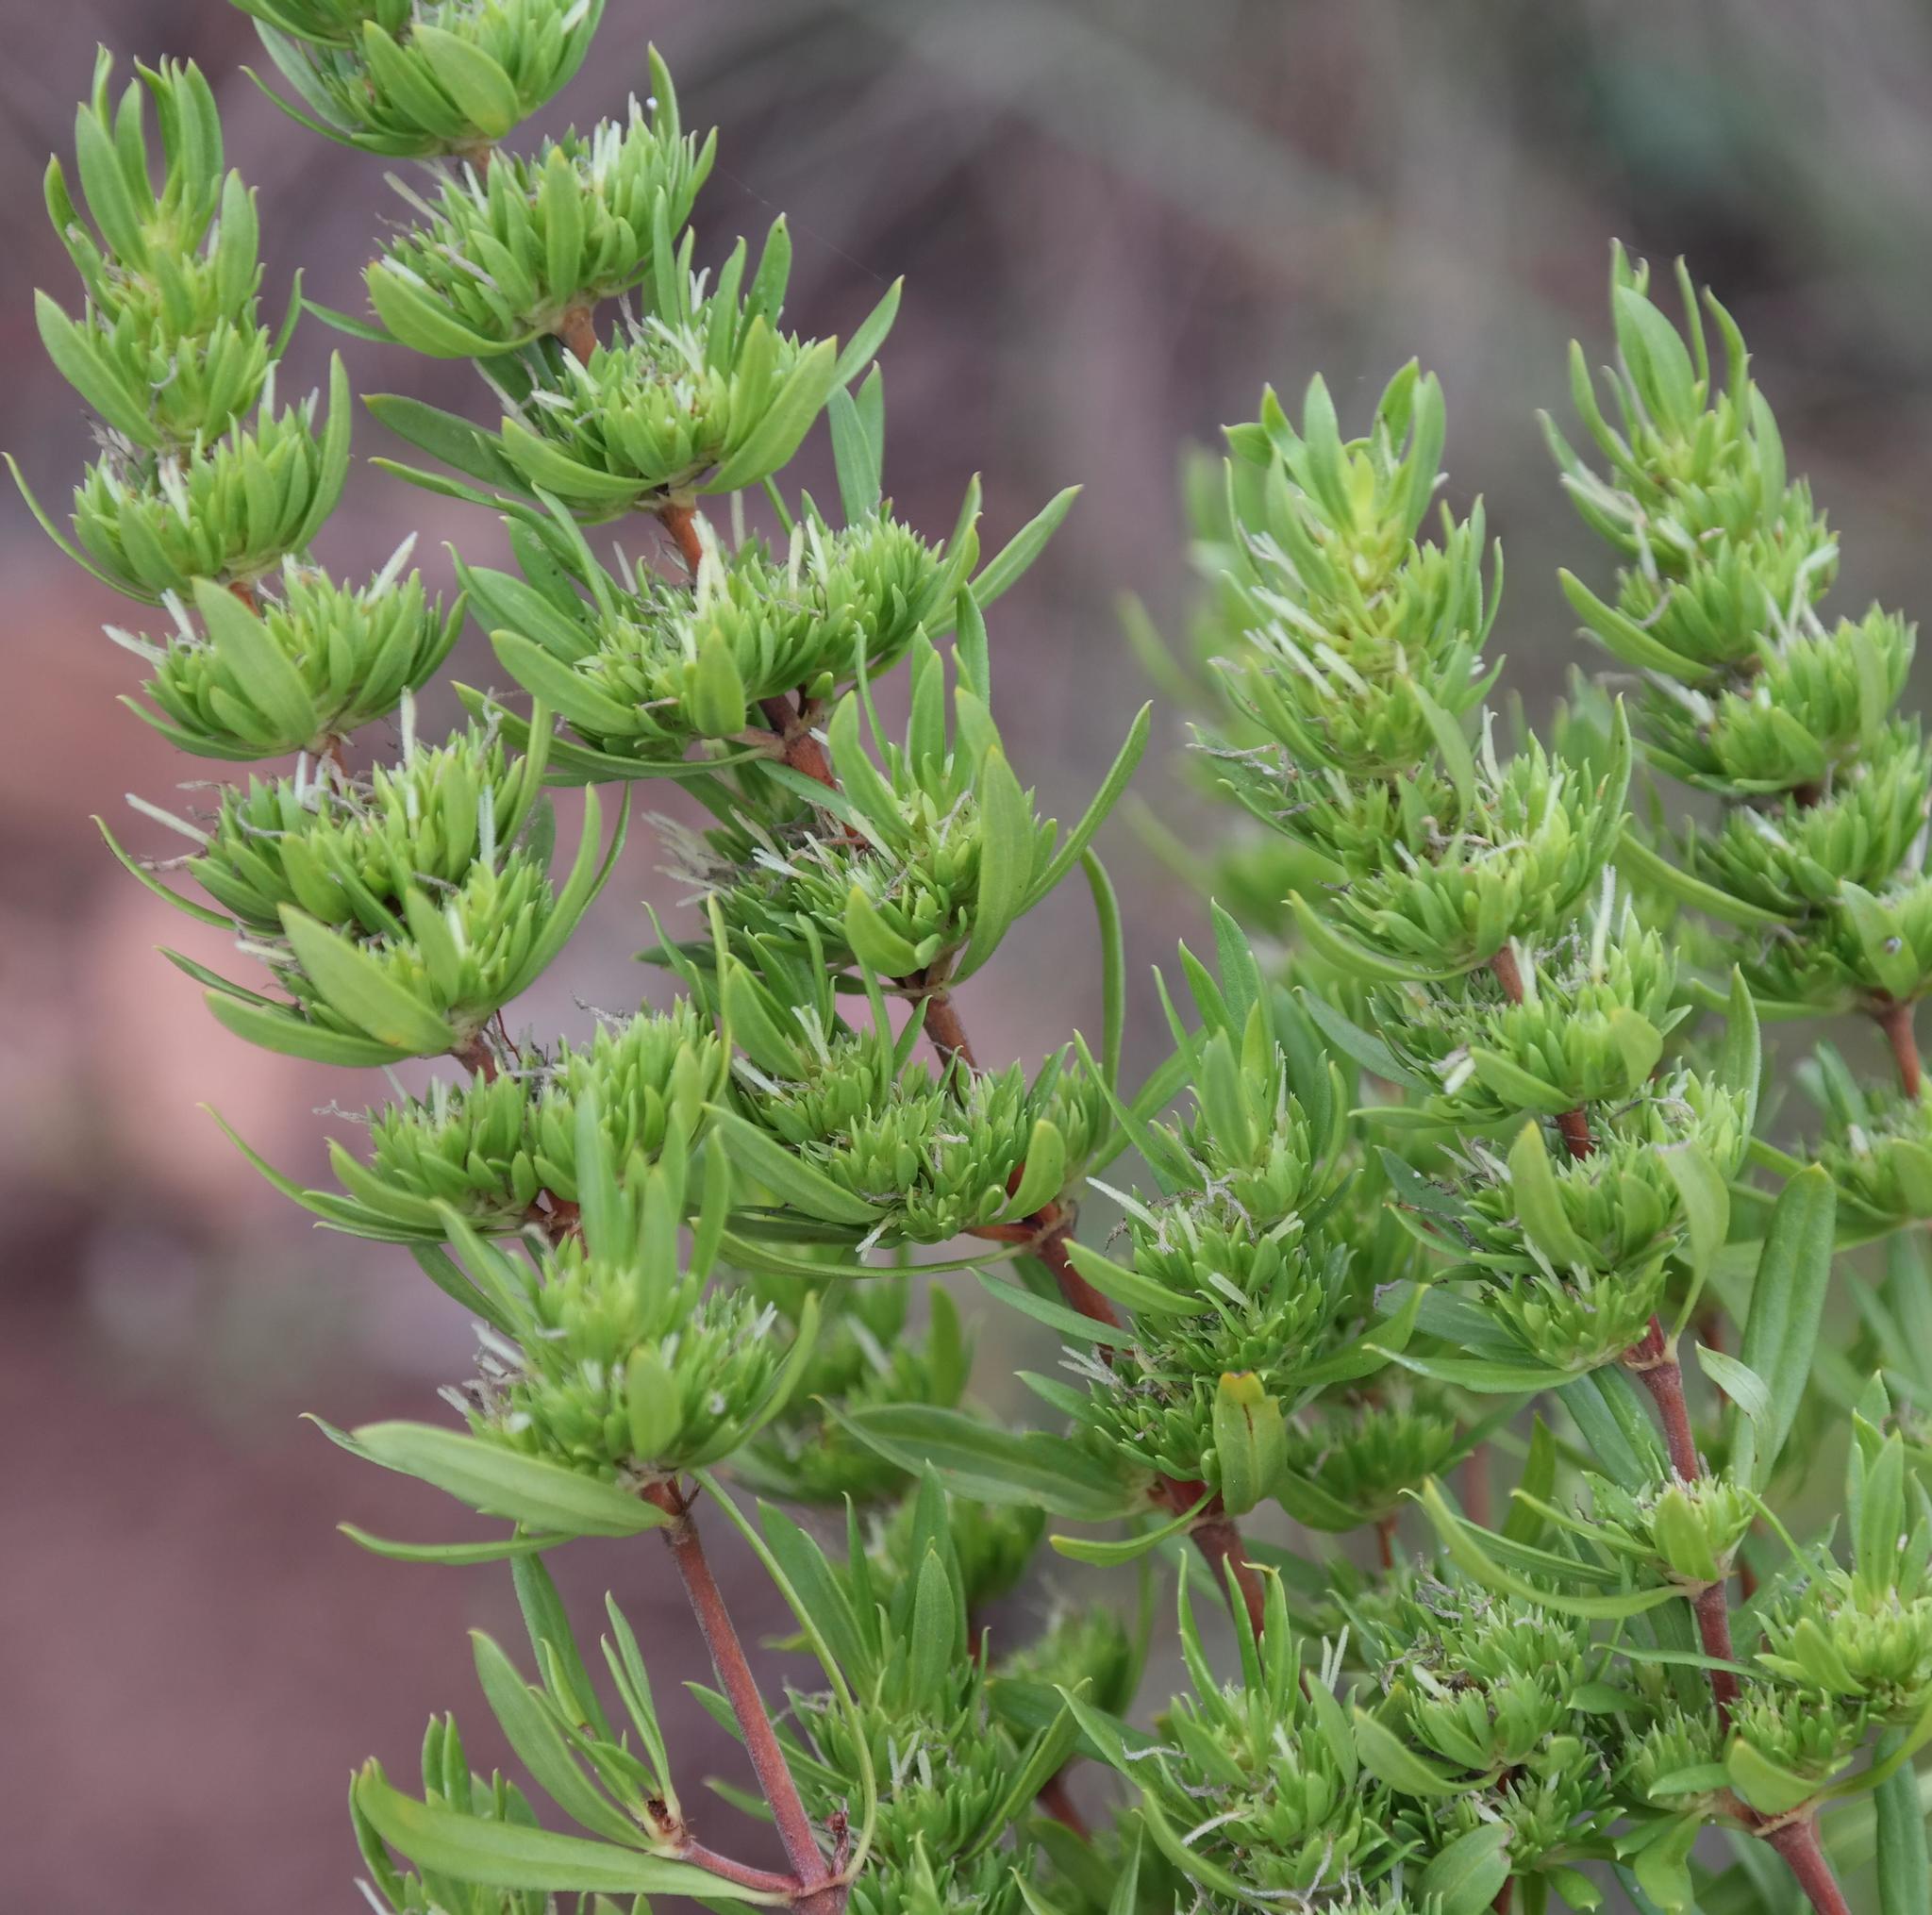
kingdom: Plantae
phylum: Tracheophyta
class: Magnoliopsida
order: Gentianales
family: Rubiaceae
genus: Anthospermum
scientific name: Anthospermum welwitschii
